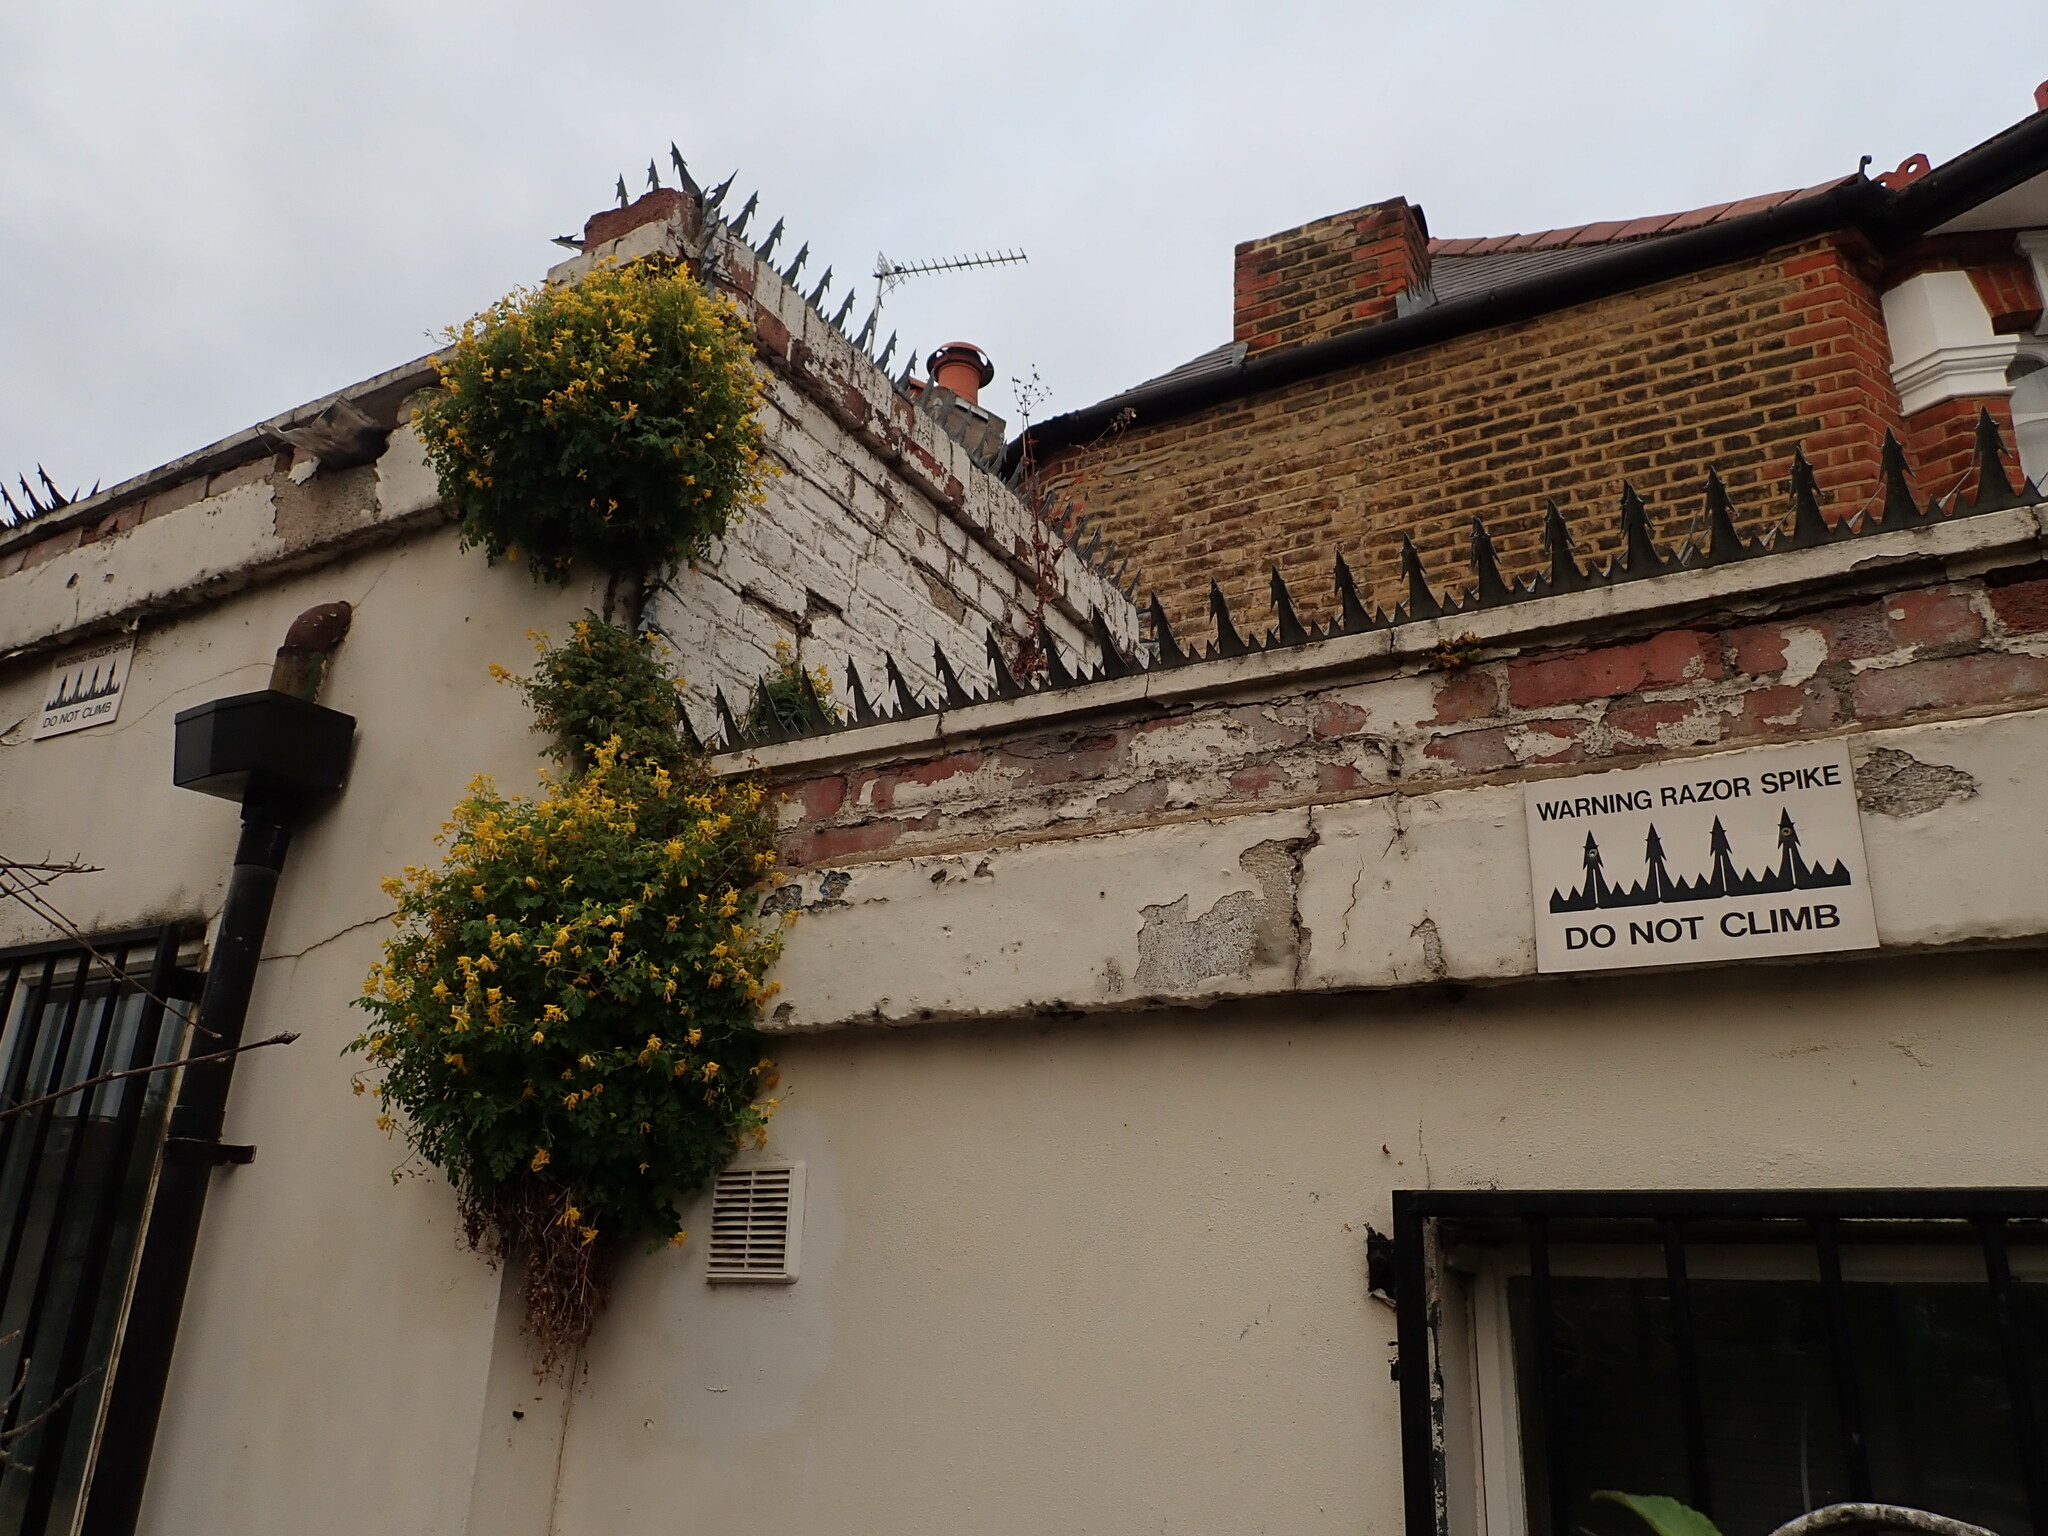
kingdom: Plantae
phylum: Tracheophyta
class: Magnoliopsida
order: Ranunculales
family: Papaveraceae
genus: Pseudofumaria
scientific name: Pseudofumaria lutea
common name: Yellow corydalis
